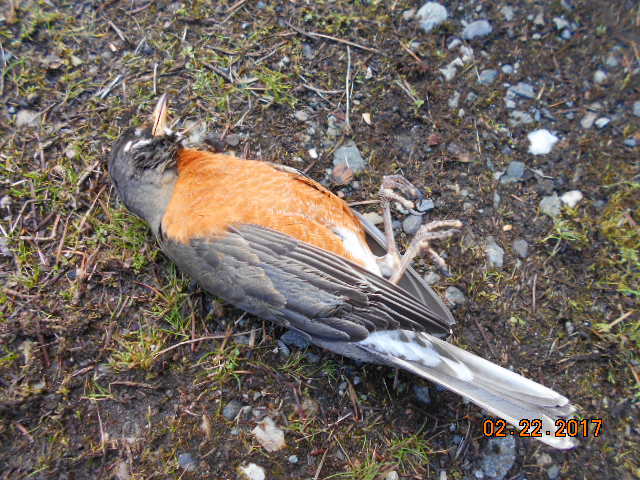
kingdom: Animalia
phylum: Chordata
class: Aves
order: Passeriformes
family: Turdidae
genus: Turdus
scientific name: Turdus migratorius
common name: American robin
